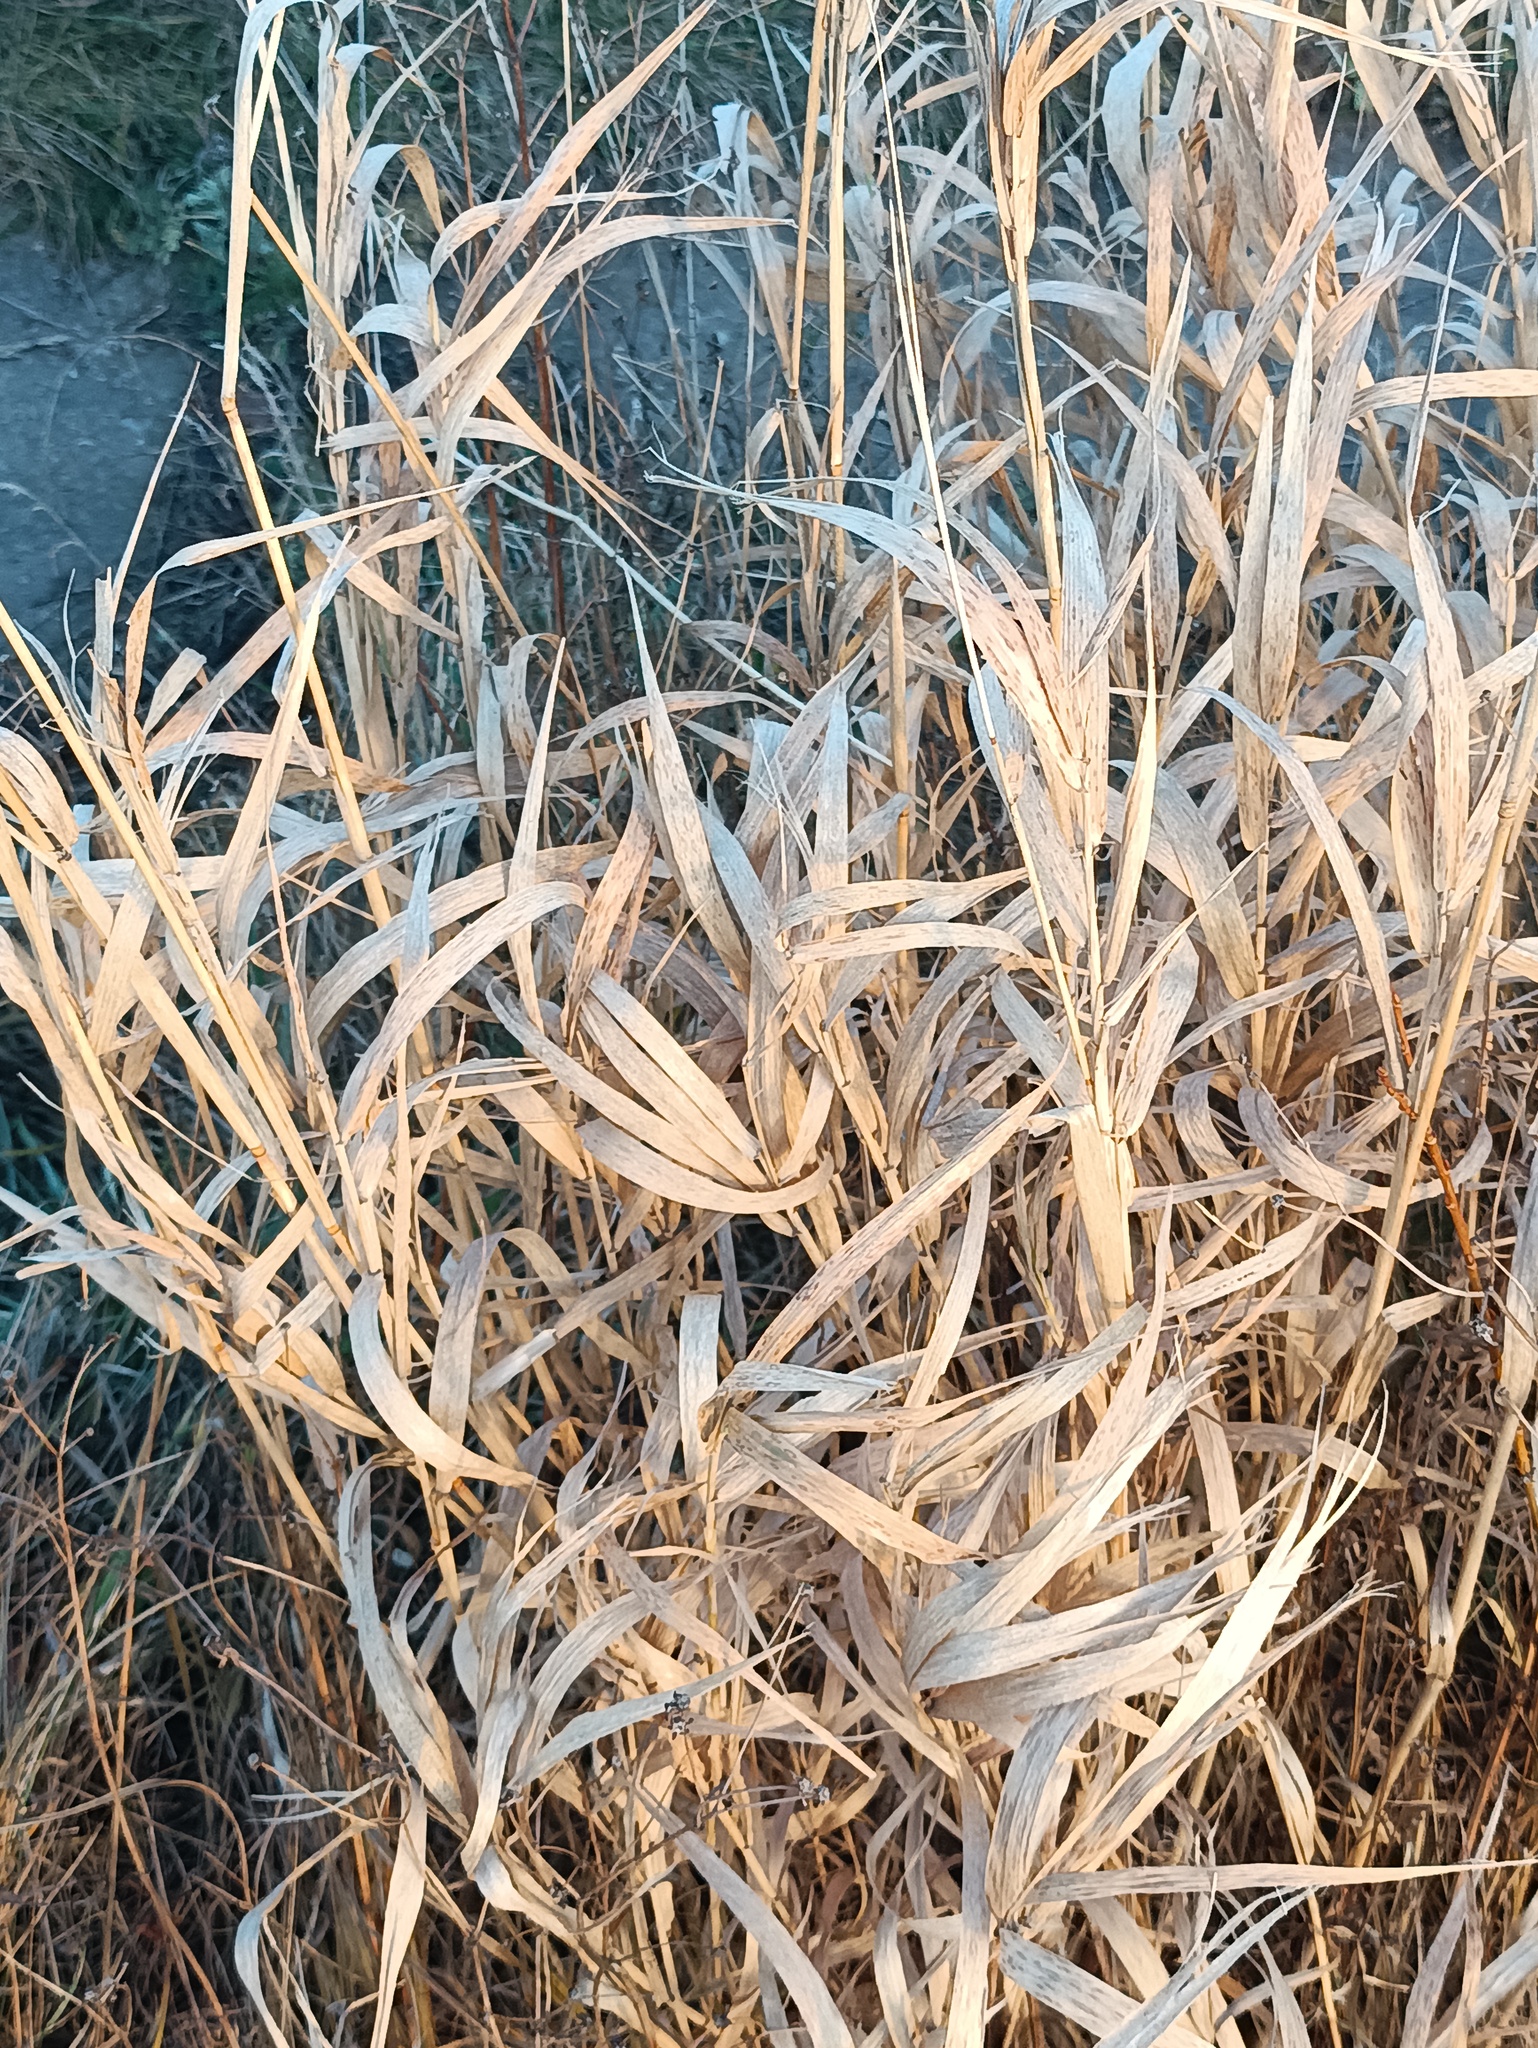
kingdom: Plantae
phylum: Tracheophyta
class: Liliopsida
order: Poales
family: Poaceae
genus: Phalaris
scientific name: Phalaris arundinacea
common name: Reed canary-grass
